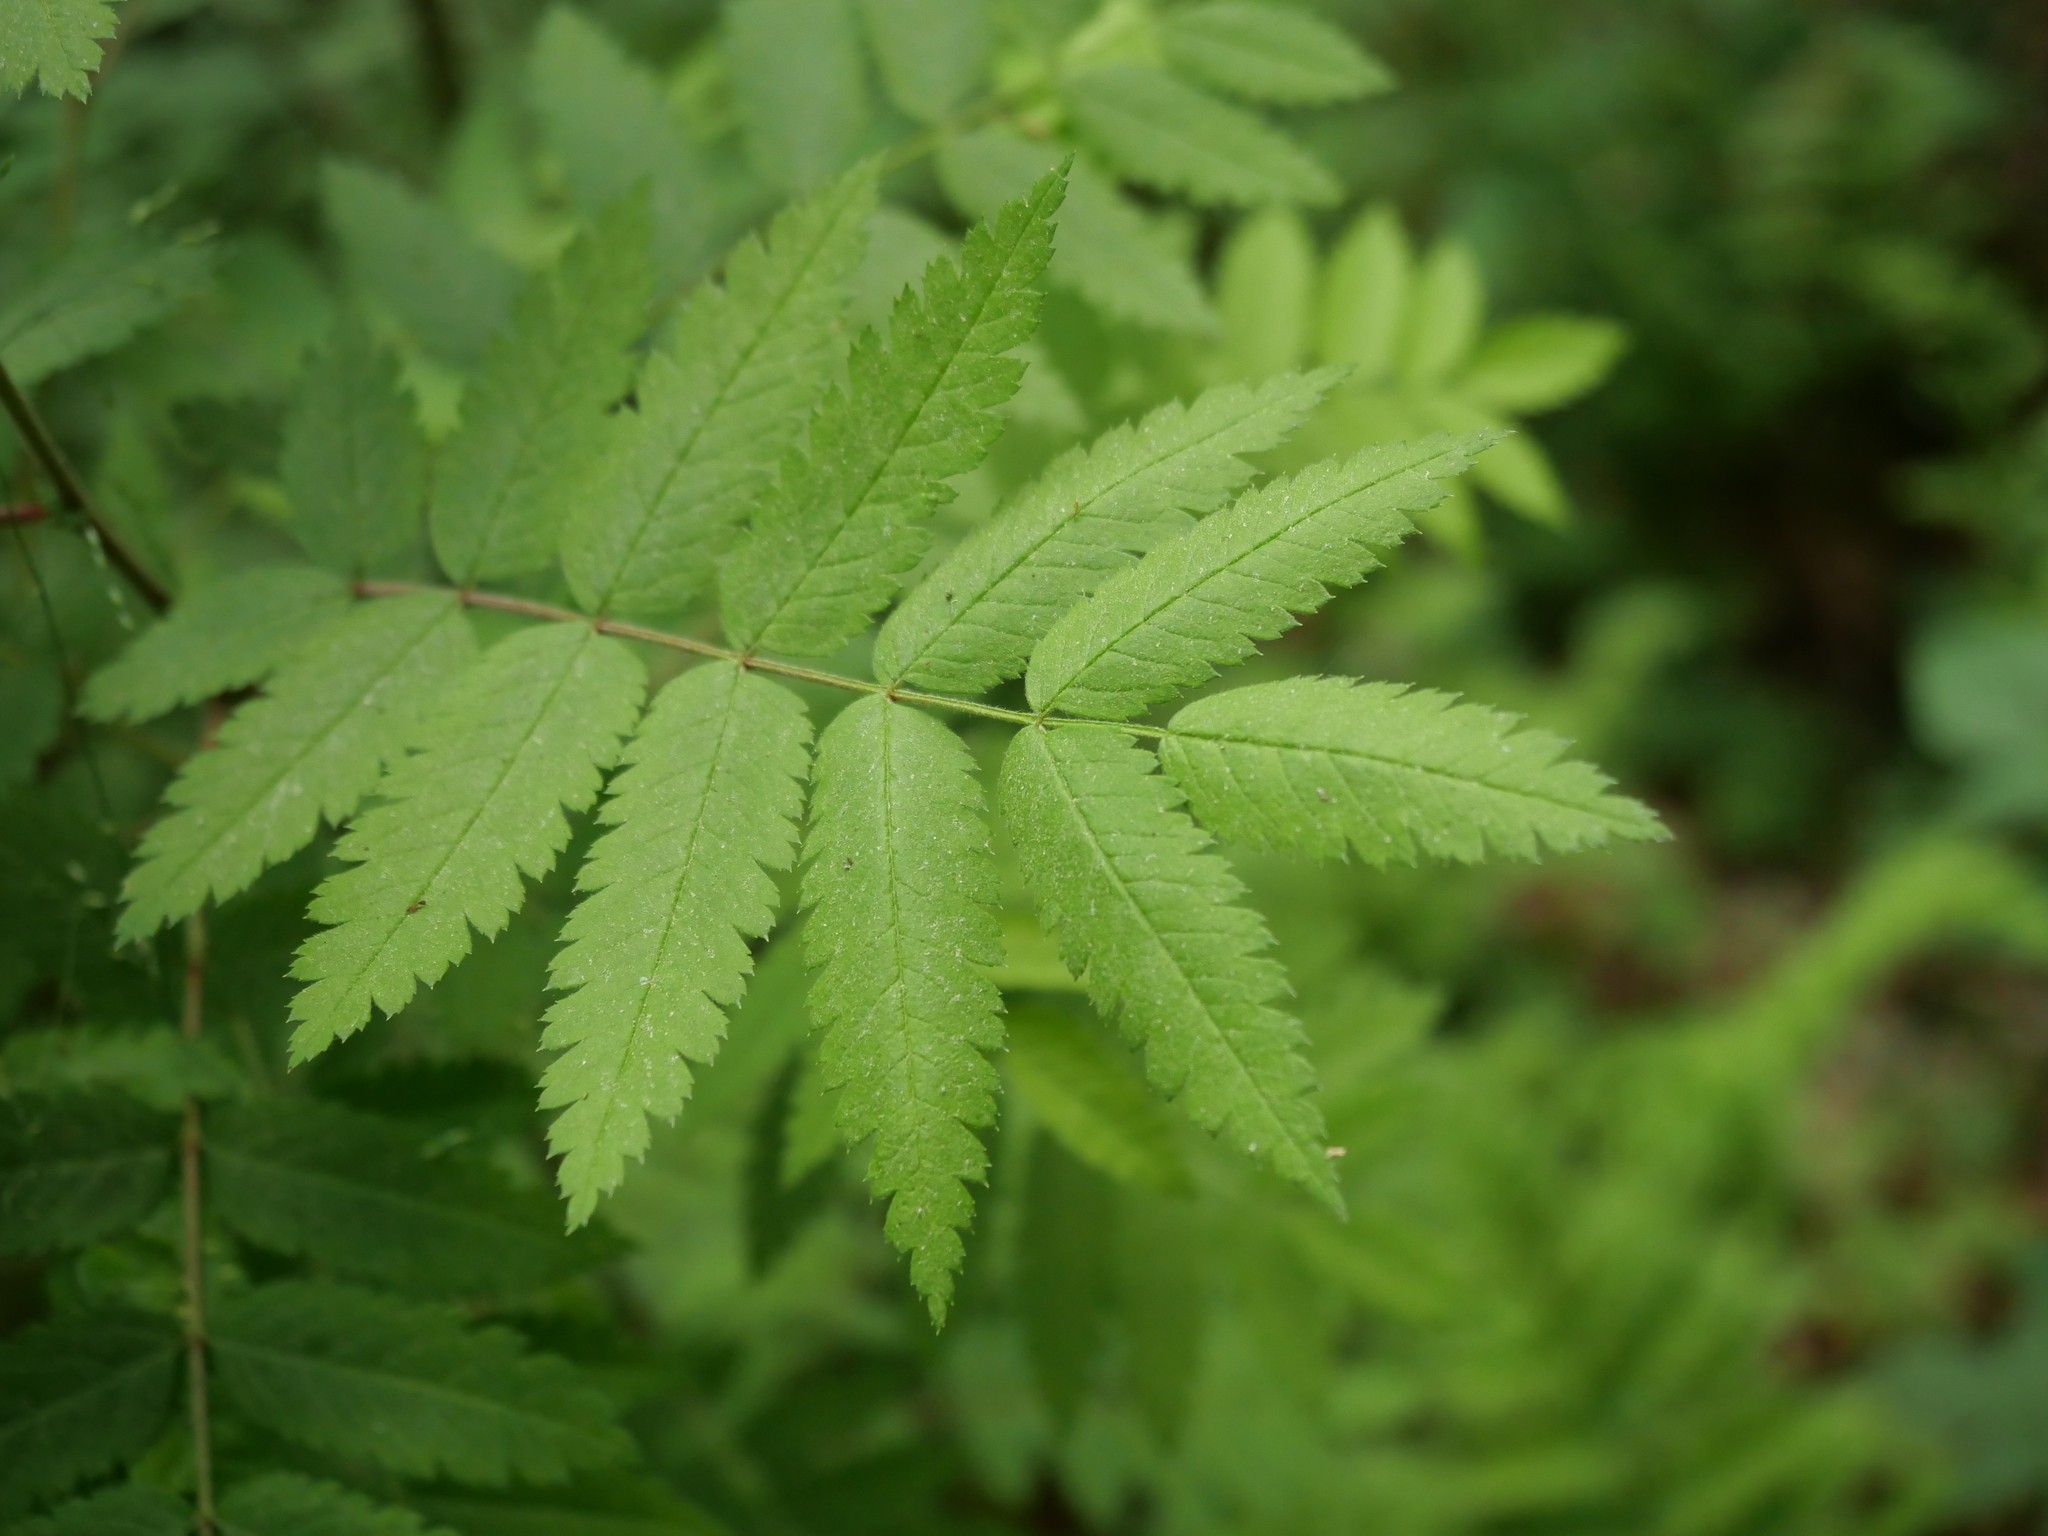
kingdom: Plantae
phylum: Tracheophyta
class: Magnoliopsida
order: Rosales
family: Rosaceae
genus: Sorbus
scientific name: Sorbus aucuparia
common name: Rowan
